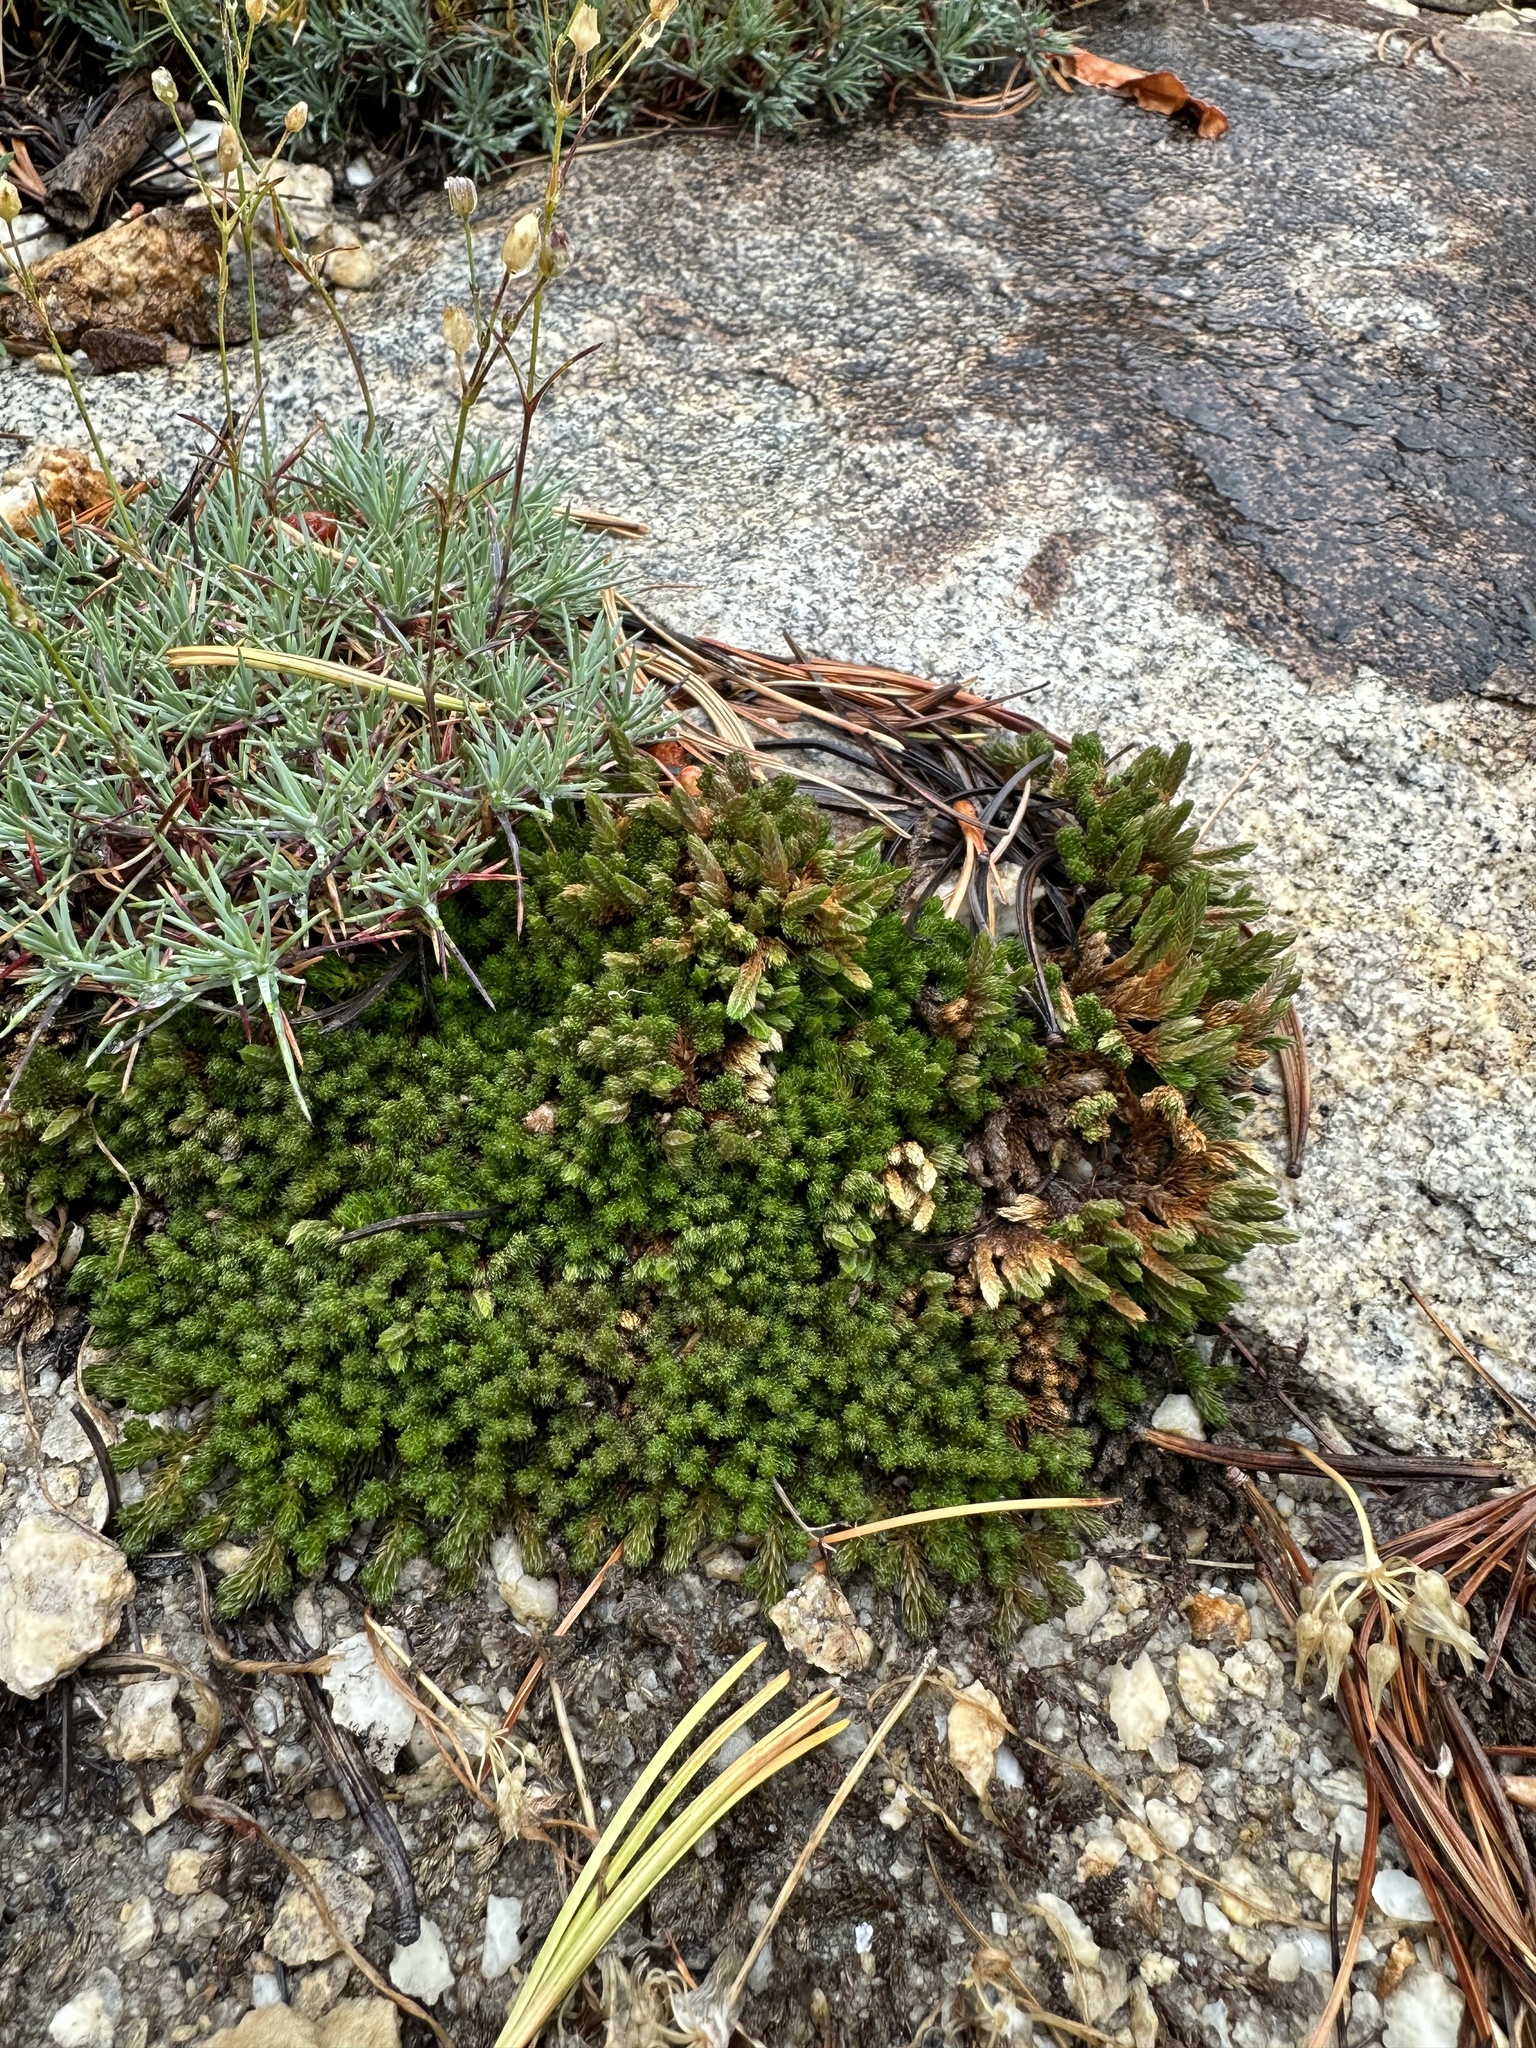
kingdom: Plantae
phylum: Tracheophyta
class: Lycopodiopsida
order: Selaginellales
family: Selaginellaceae
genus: Selaginella
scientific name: Selaginella watsonii
